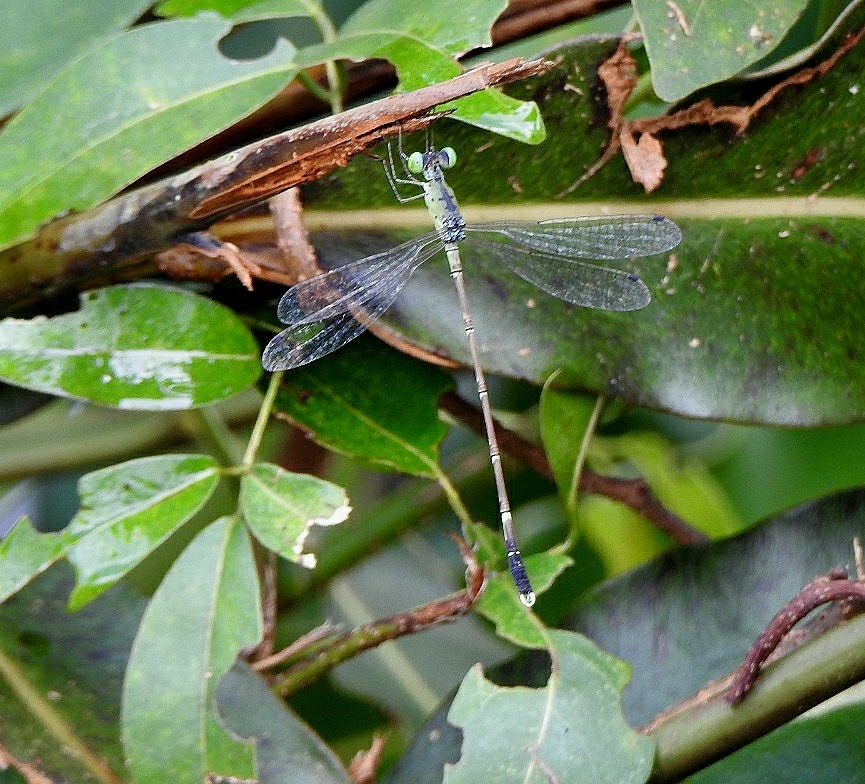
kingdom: Animalia
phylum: Arthropoda
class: Insecta
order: Odonata
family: Lestidae
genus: Platylestes
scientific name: Platylestes kirani
